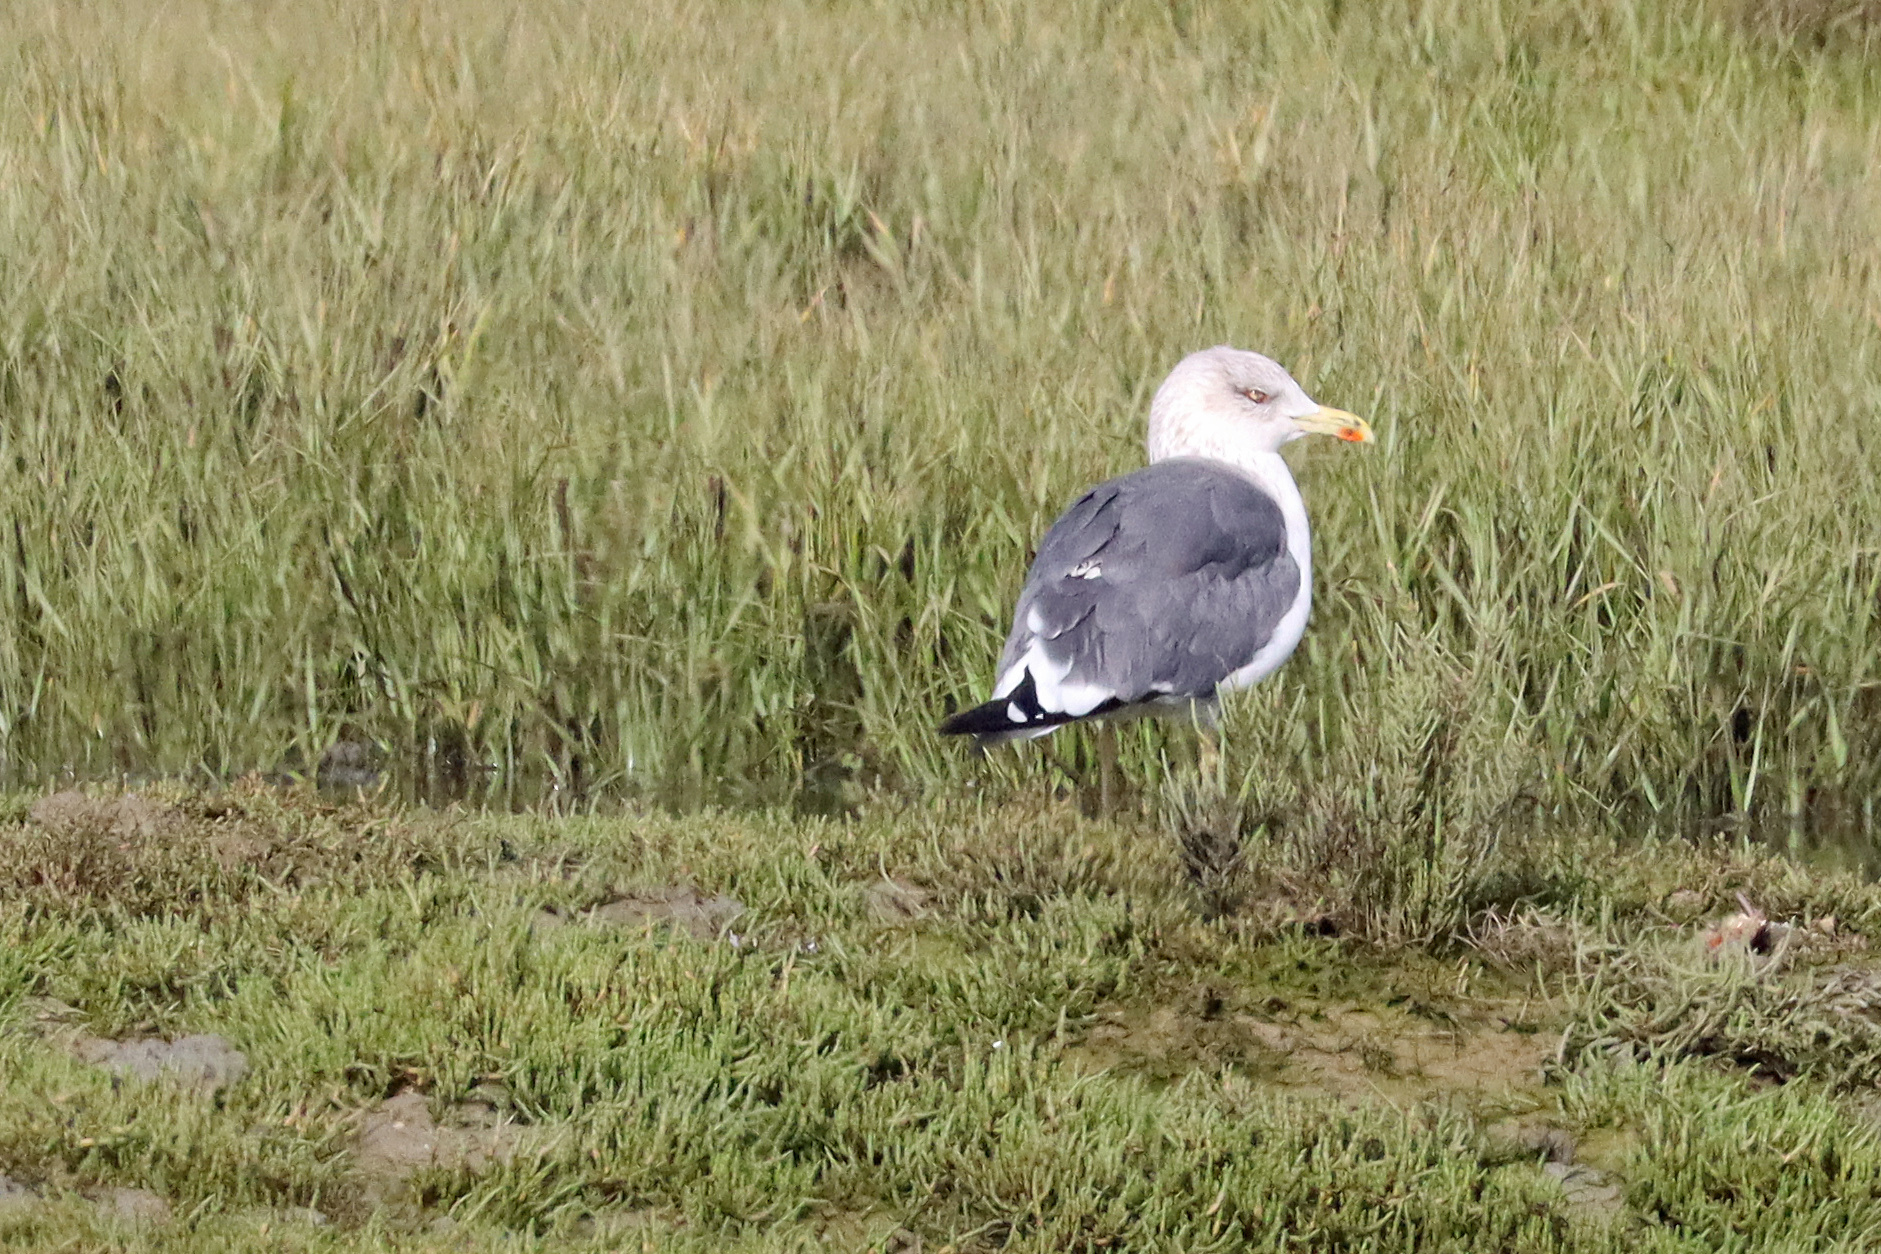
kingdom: Animalia
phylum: Chordata
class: Aves
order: Charadriiformes
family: Laridae
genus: Larus
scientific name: Larus fuscus
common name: Lesser black-backed gull
